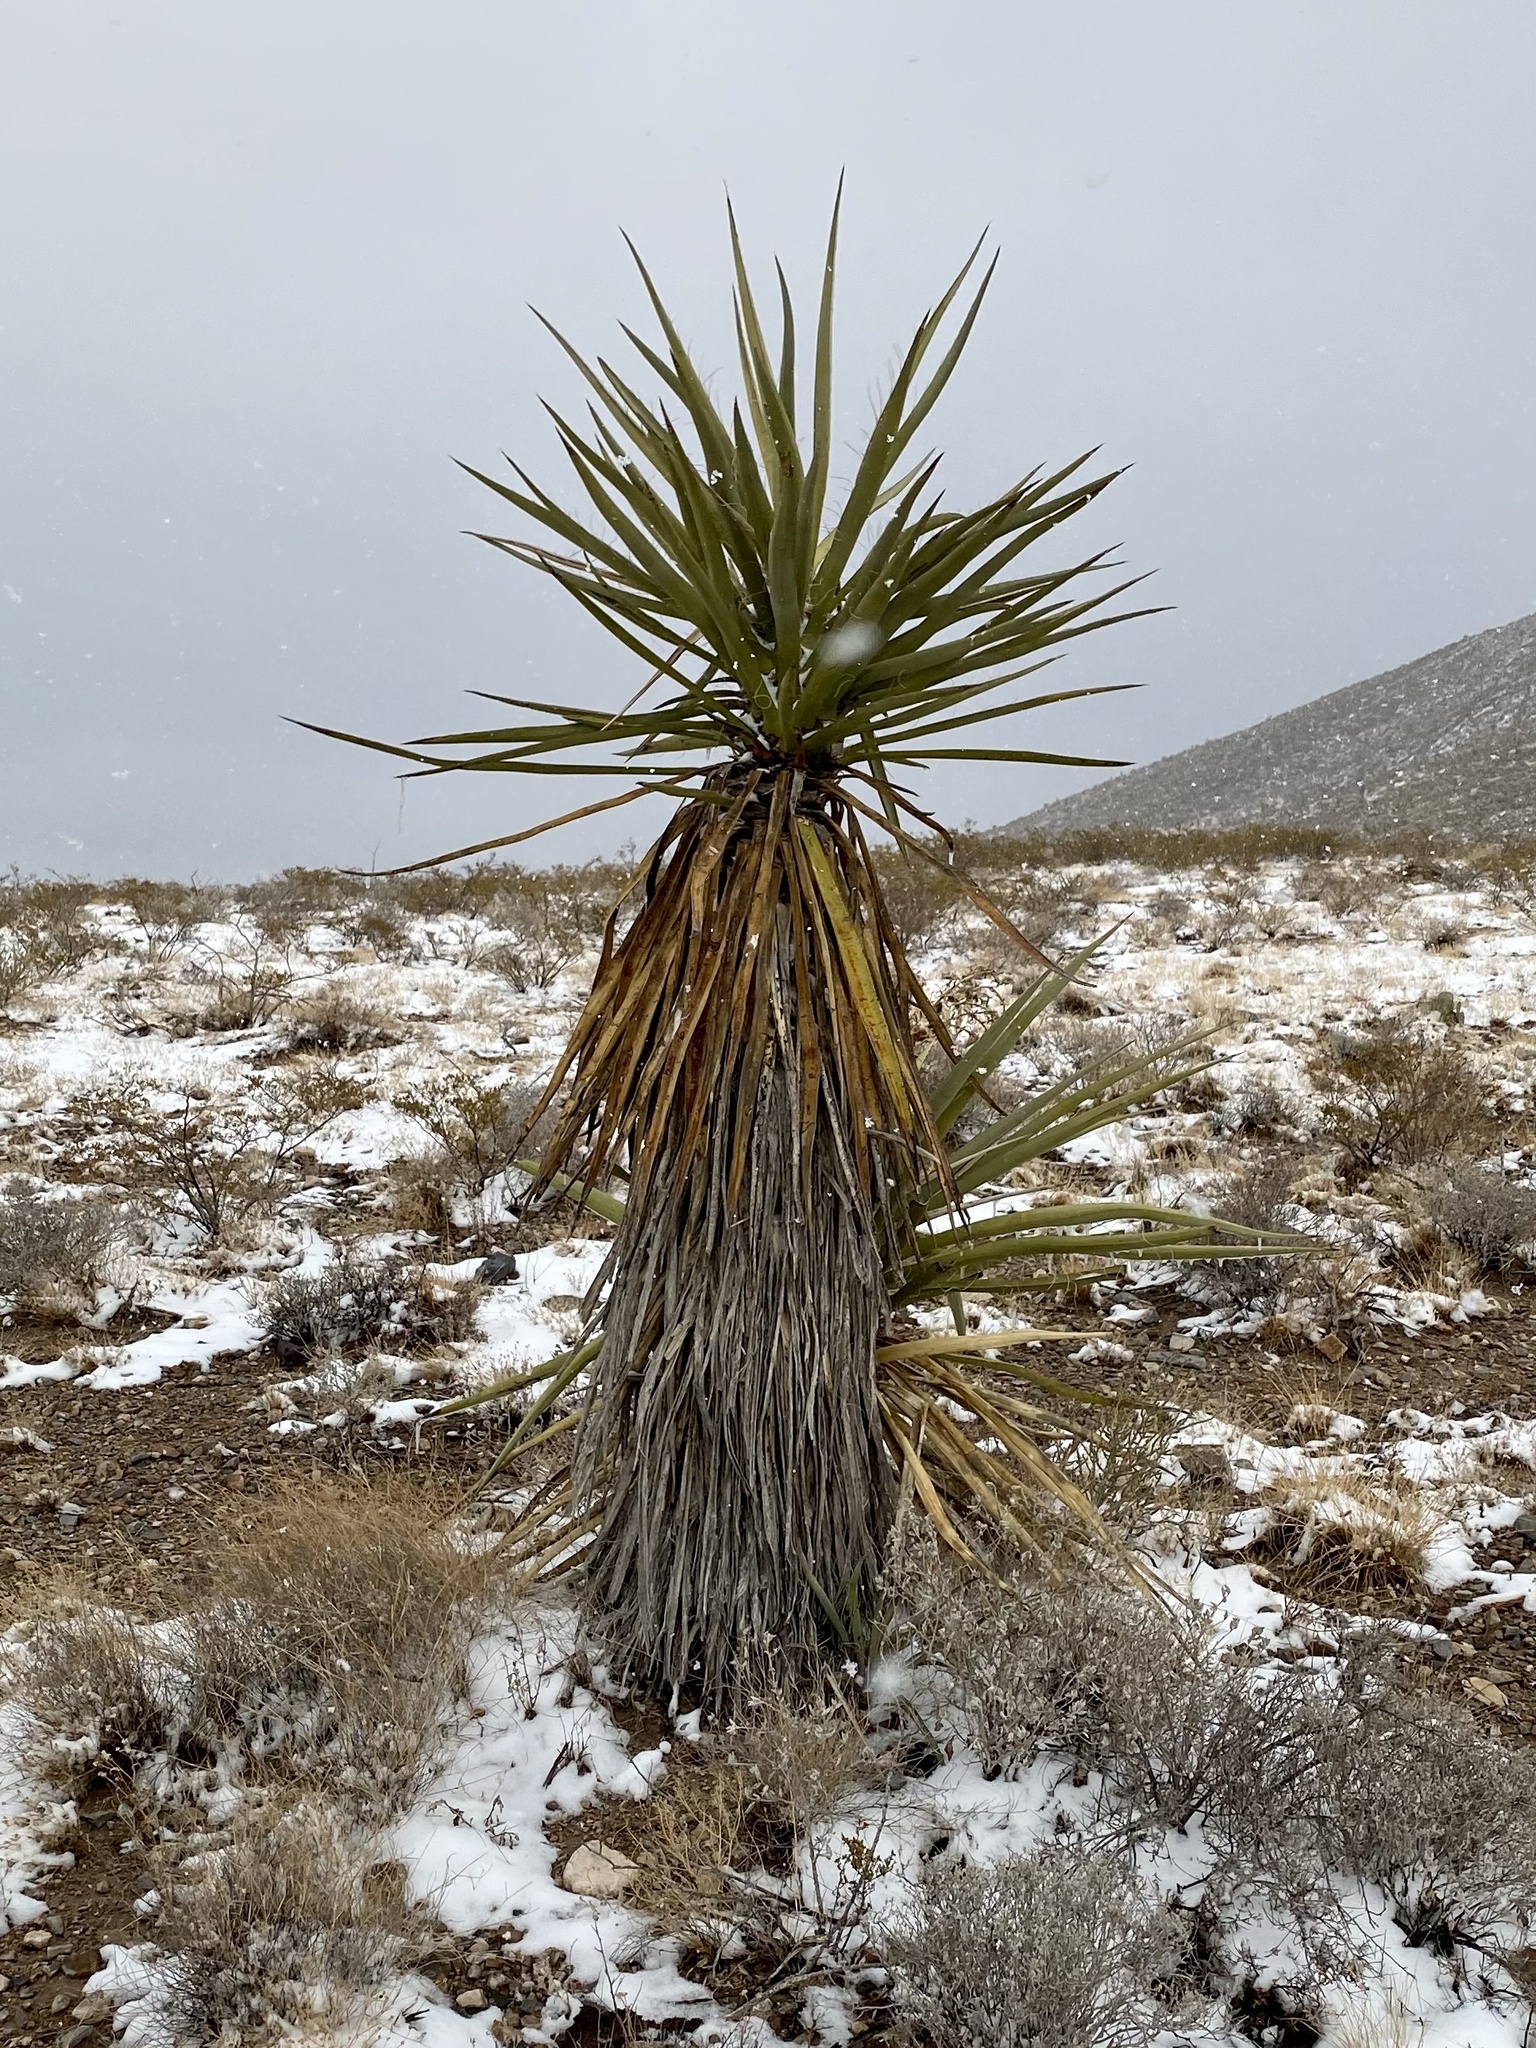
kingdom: Plantae
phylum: Tracheophyta
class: Liliopsida
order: Asparagales
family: Asparagaceae
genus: Yucca
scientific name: Yucca treculiana
